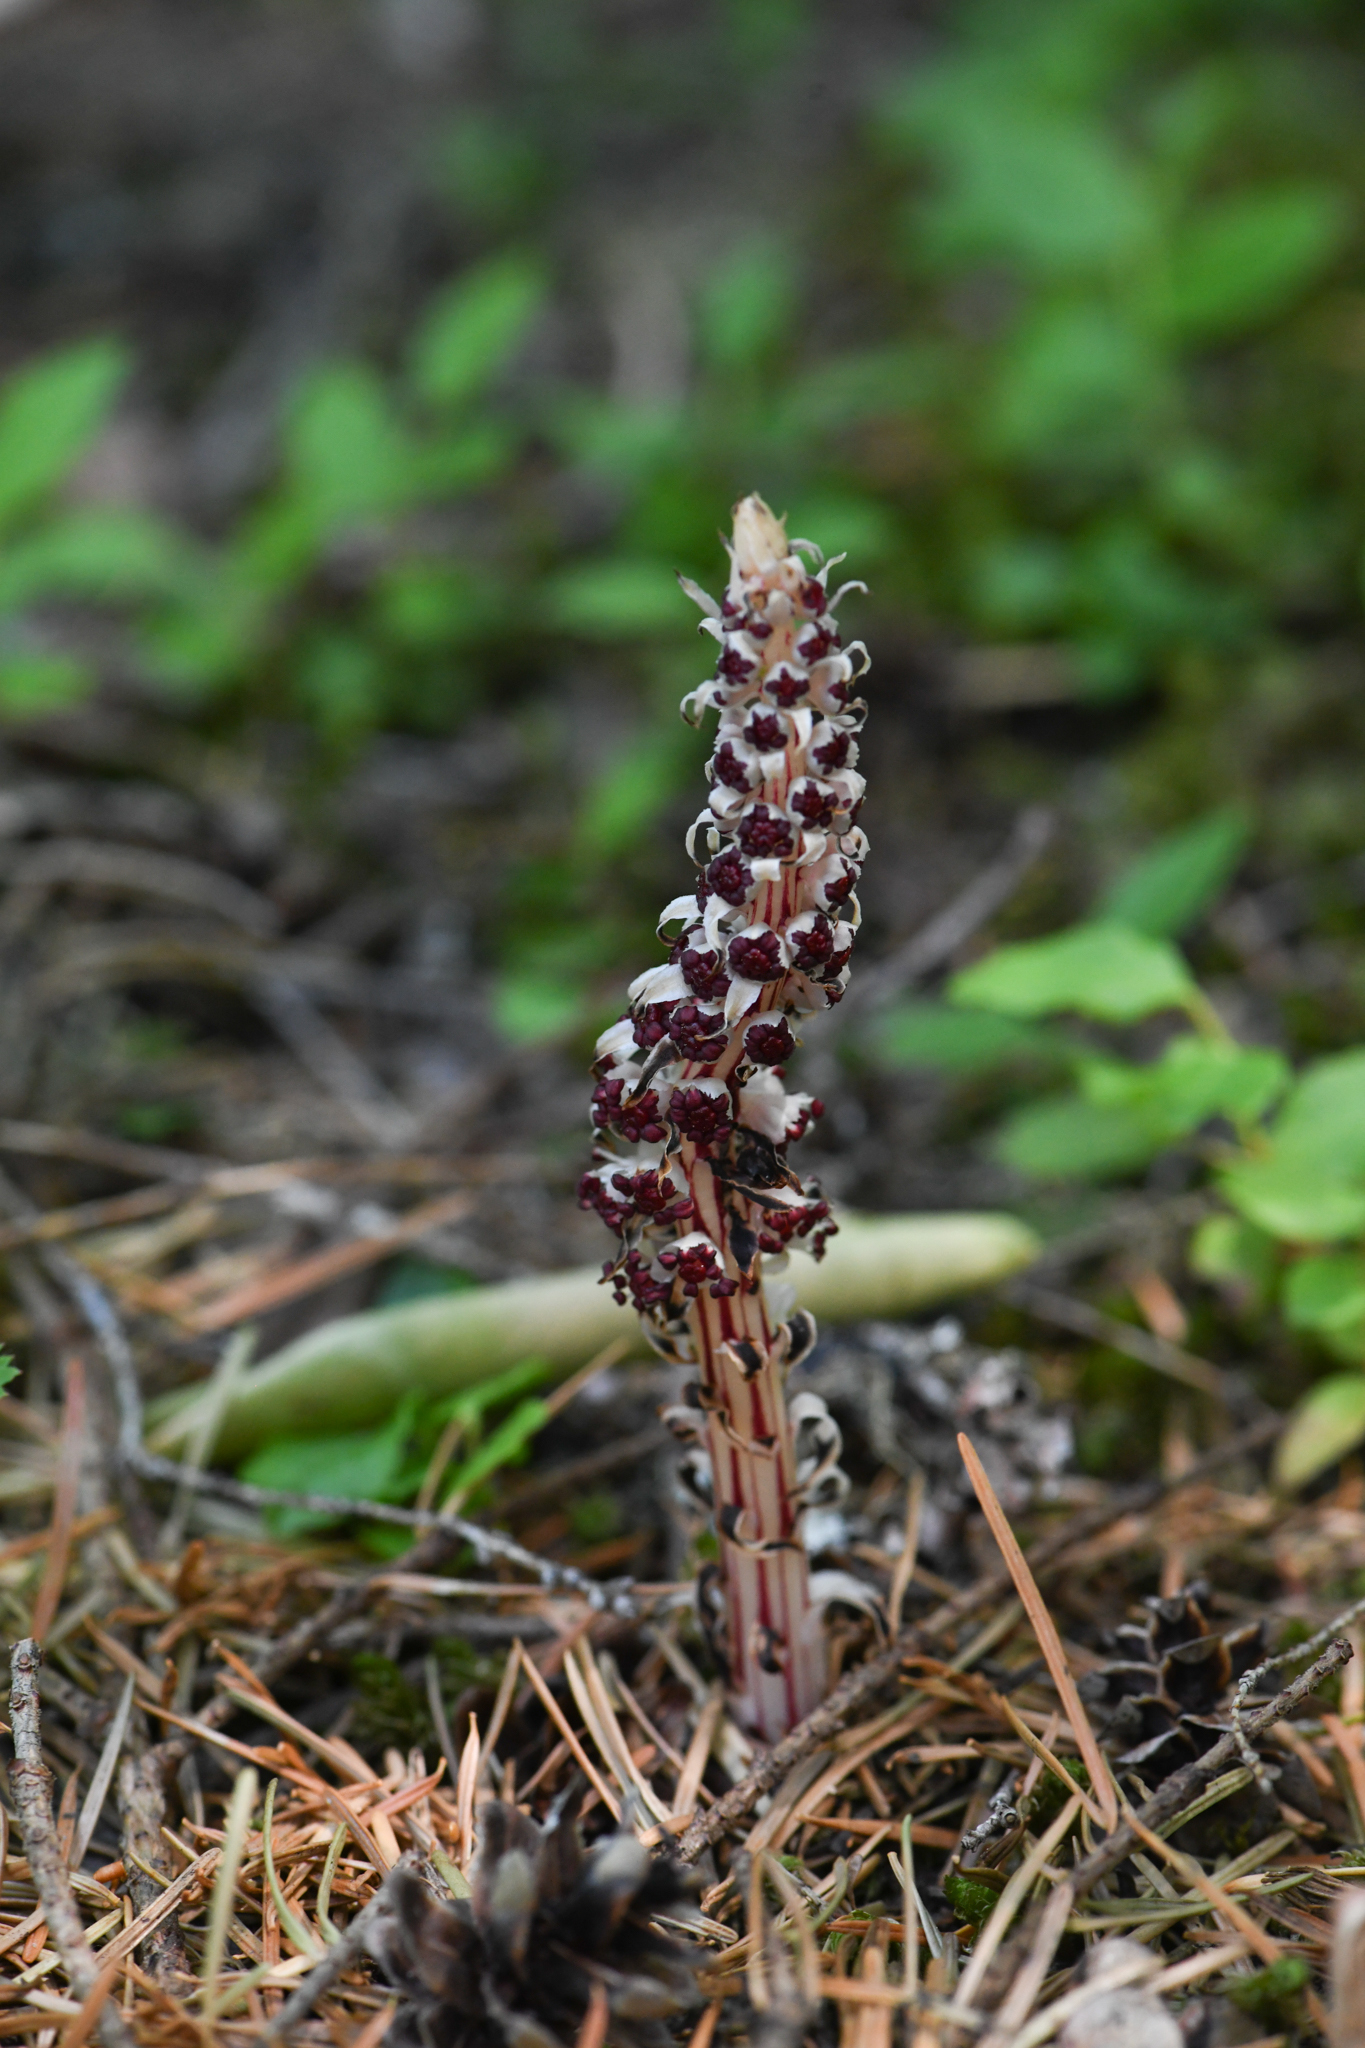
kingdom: Plantae
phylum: Tracheophyta
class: Magnoliopsida
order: Ericales
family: Ericaceae
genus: Allotropa
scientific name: Allotropa virgata
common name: Candy-striped allotropa
